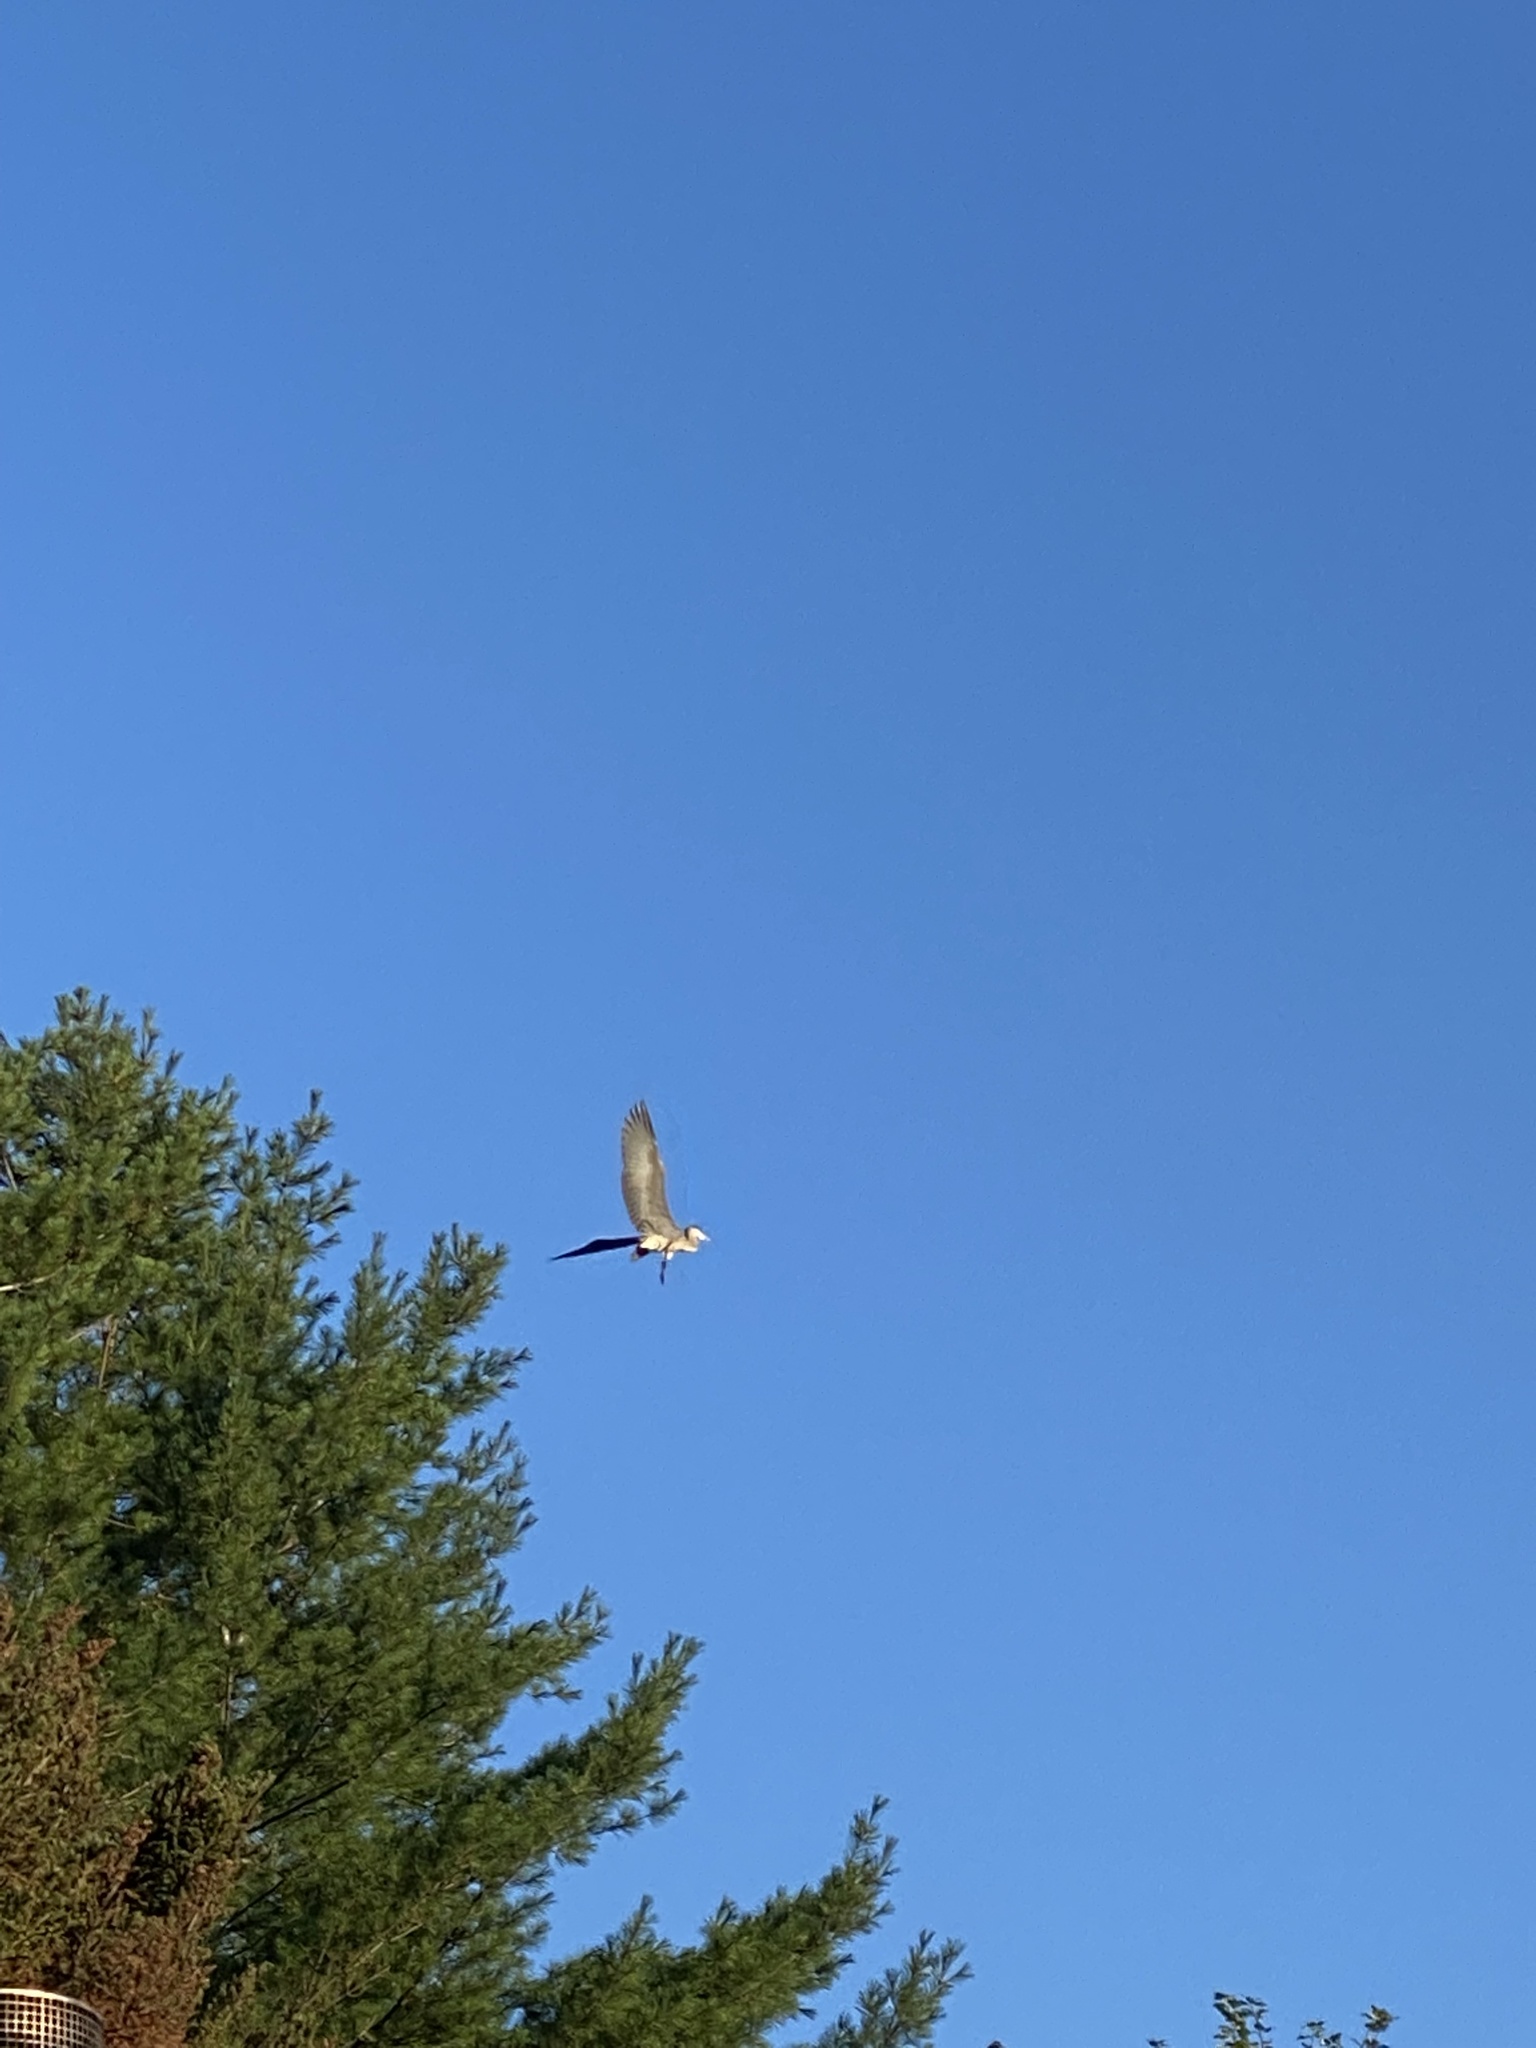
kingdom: Animalia
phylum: Chordata
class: Aves
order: Pelecaniformes
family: Ardeidae
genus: Ardea
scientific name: Ardea herodias
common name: Great blue heron
